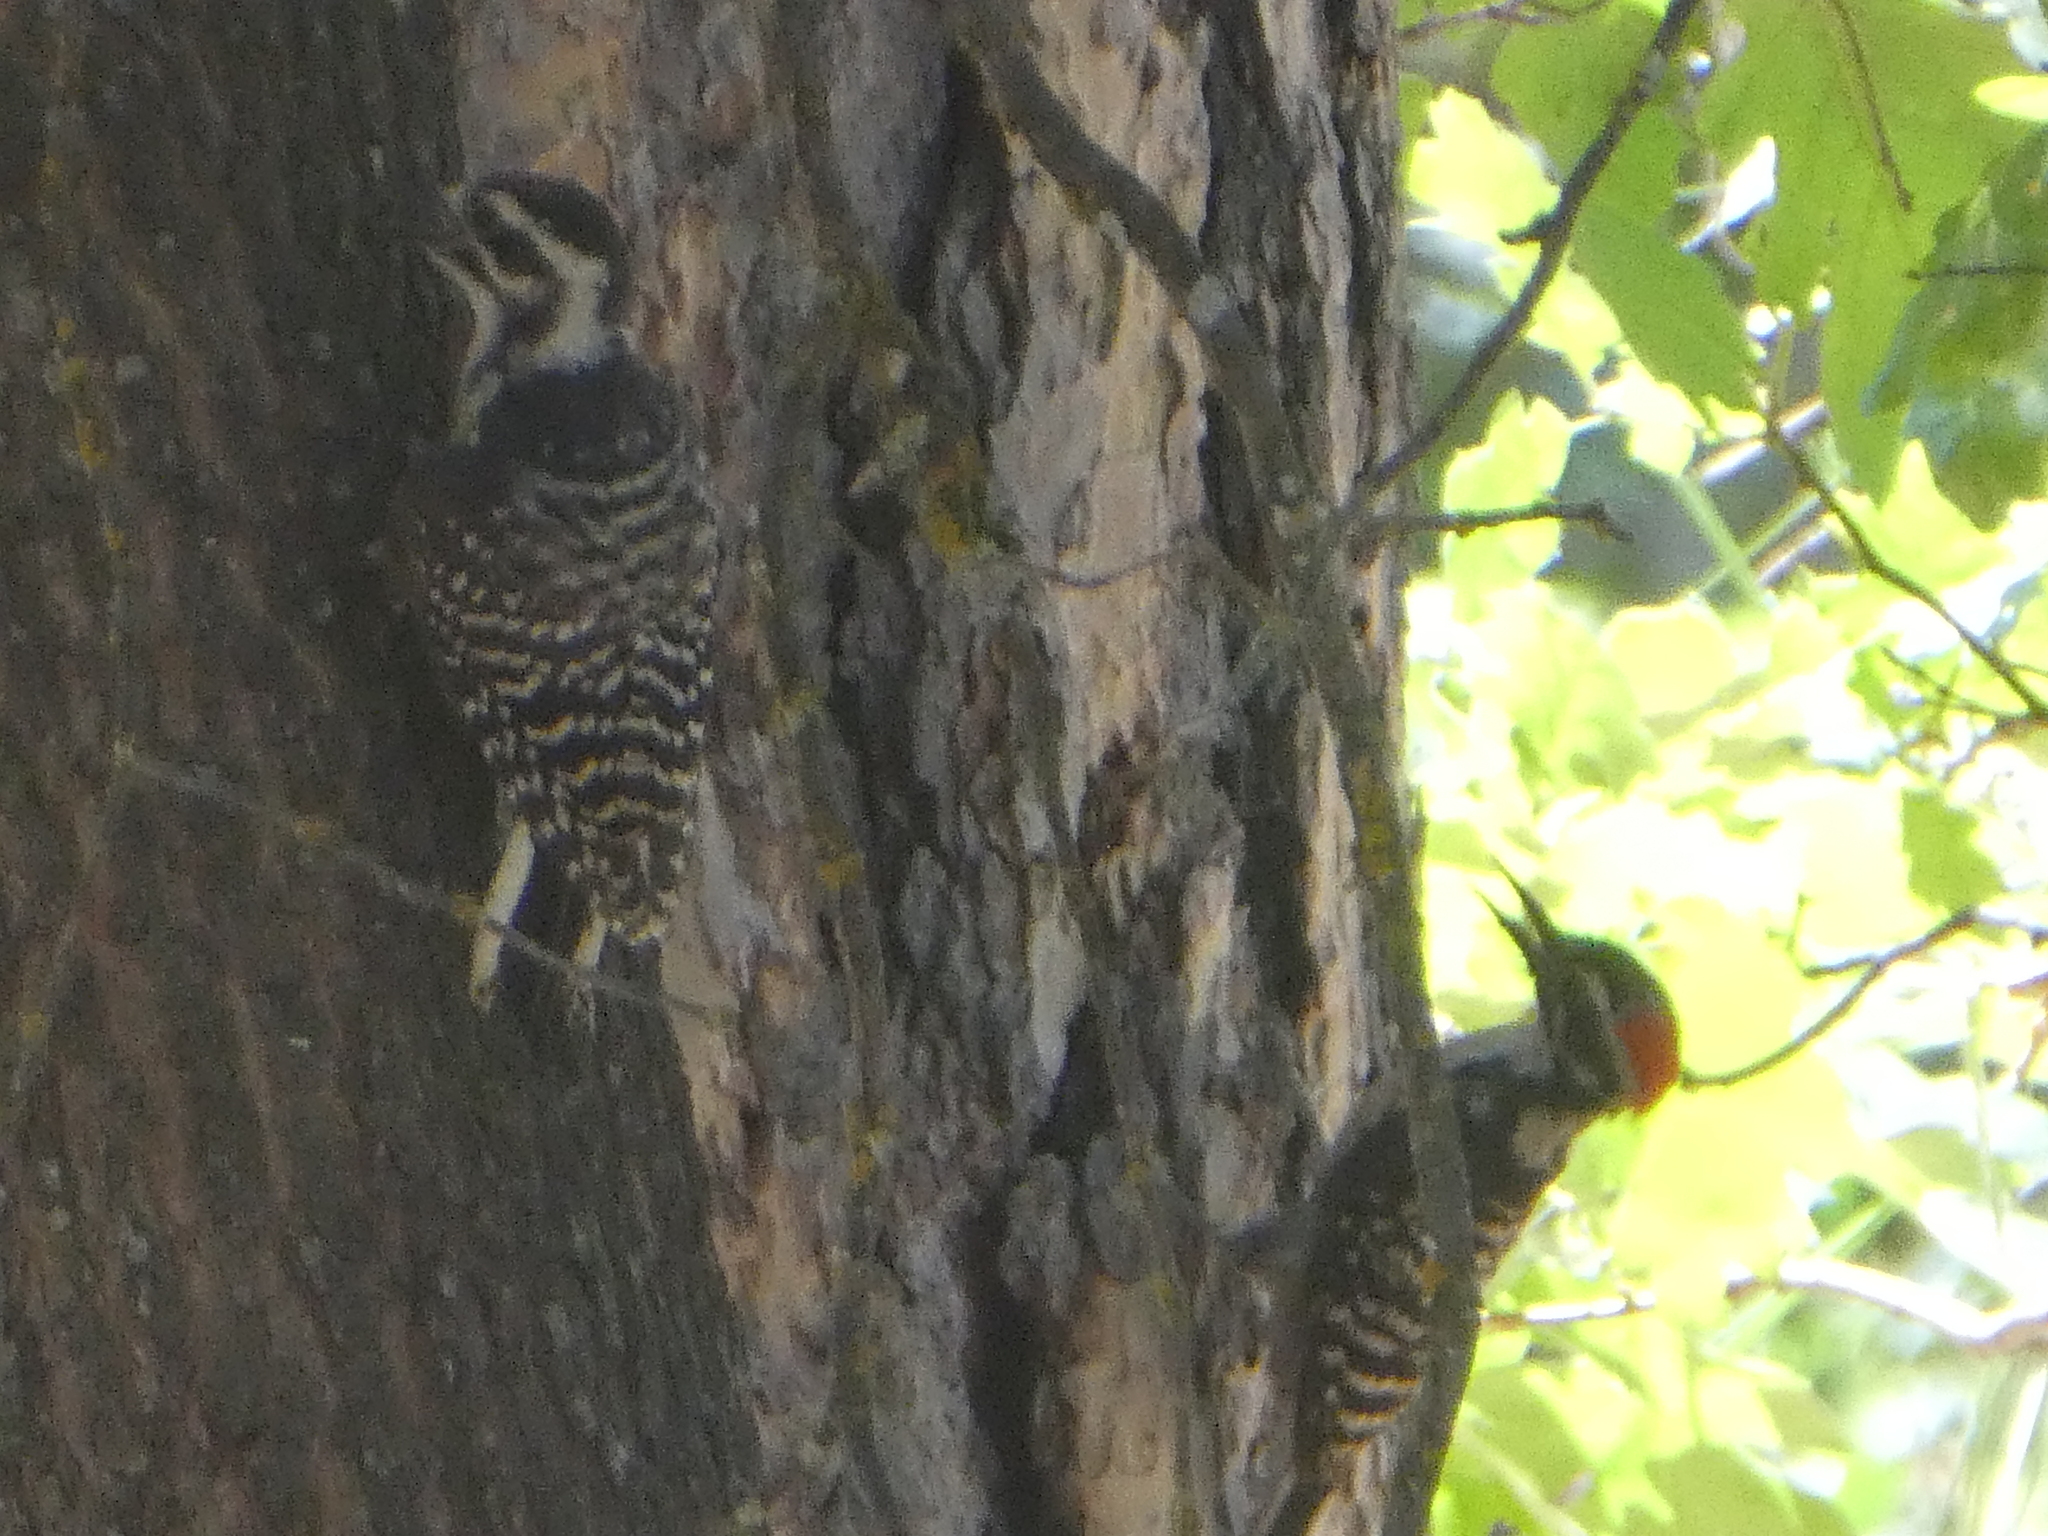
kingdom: Animalia
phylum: Chordata
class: Aves
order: Piciformes
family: Picidae
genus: Dryobates
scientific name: Dryobates nuttallii
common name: Nuttall's woodpecker
